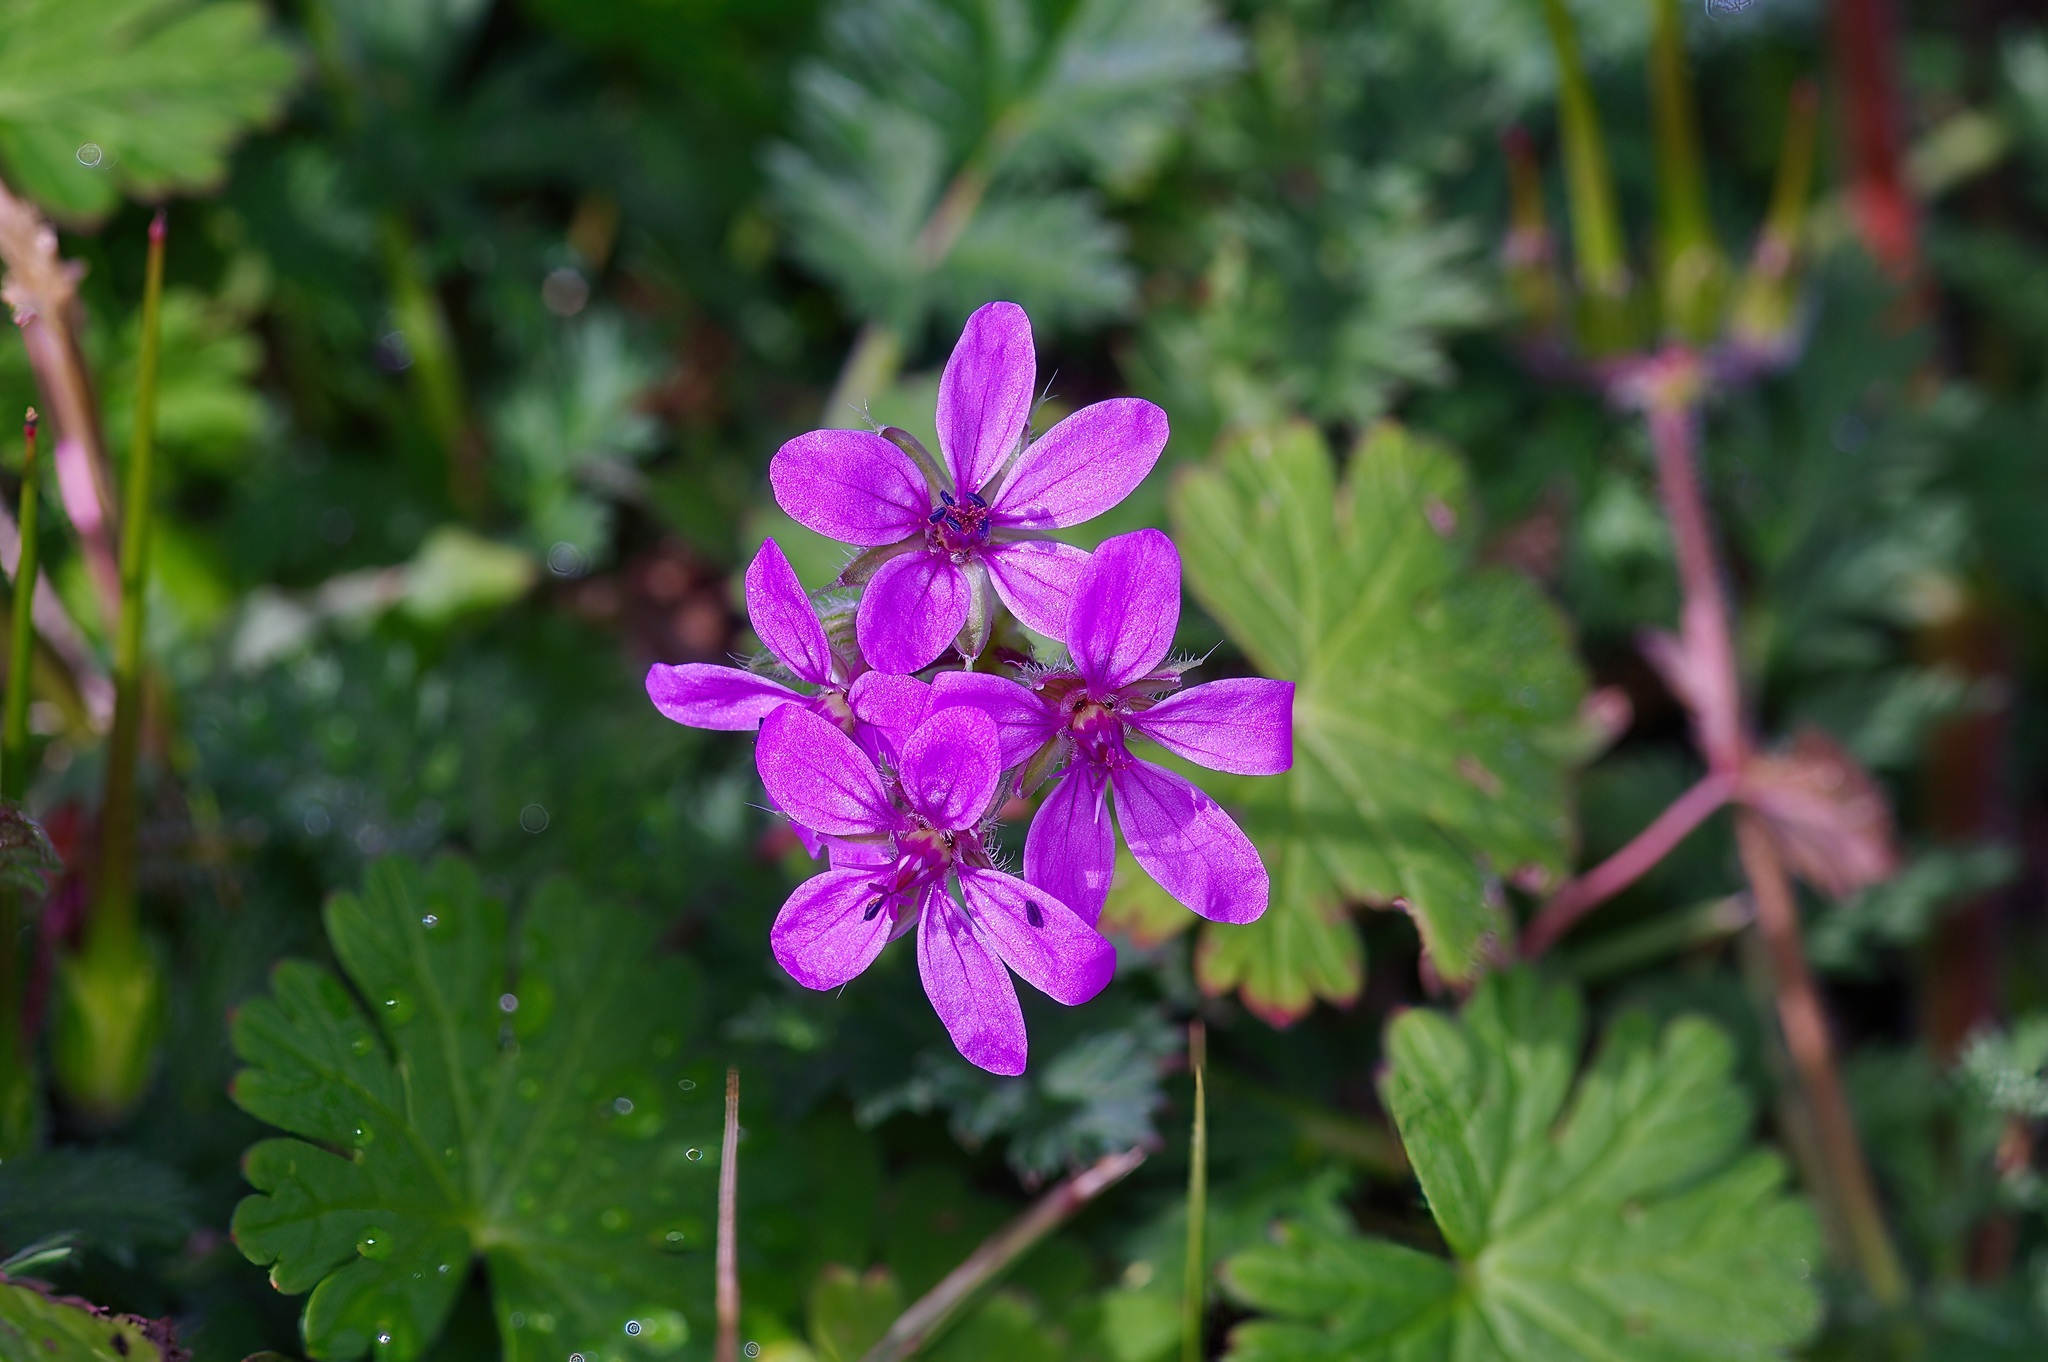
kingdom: Plantae
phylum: Tracheophyta
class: Magnoliopsida
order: Geraniales
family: Geraniaceae
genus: Erodium
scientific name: Erodium cicutarium
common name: Common stork's-bill
